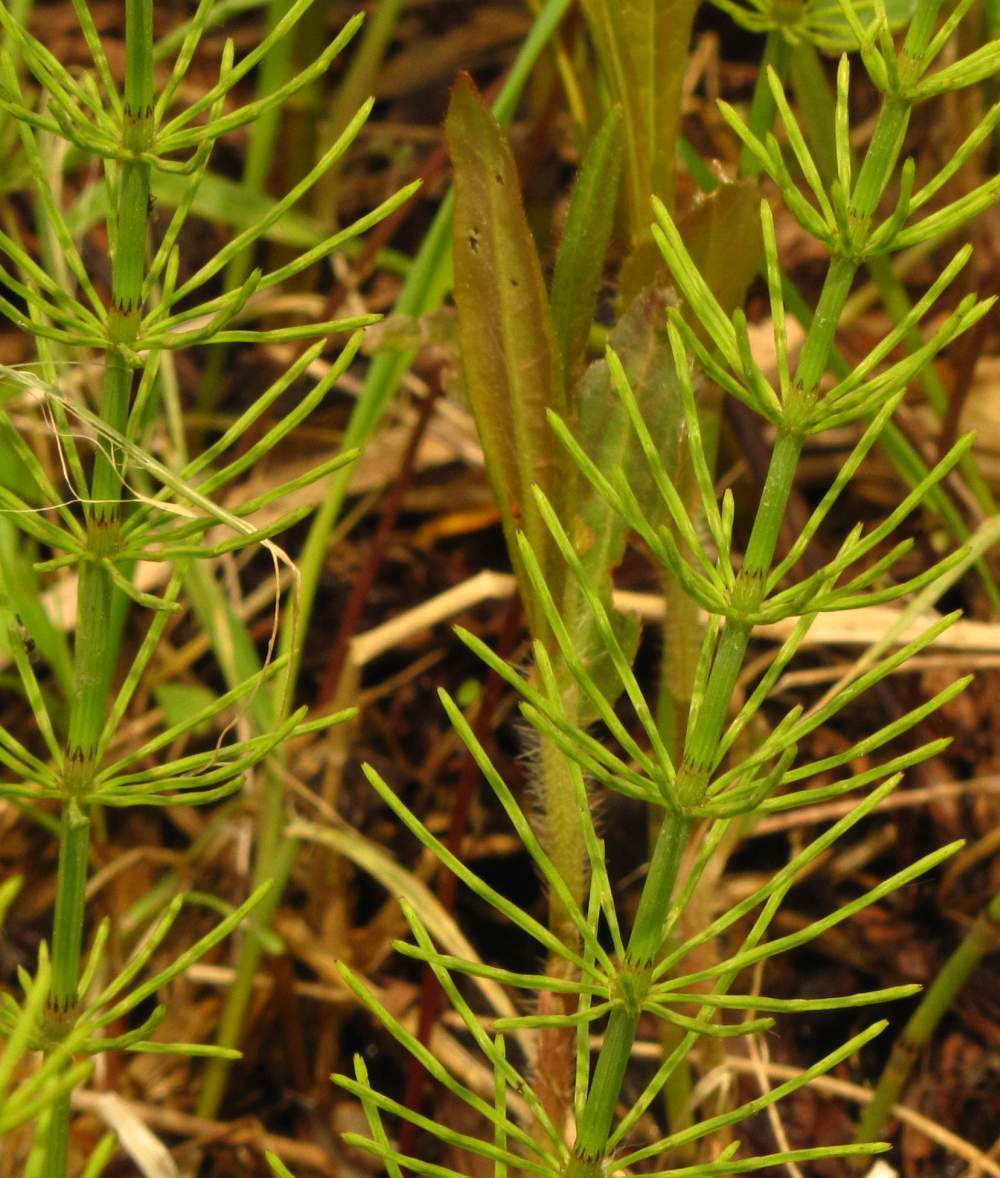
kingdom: Plantae
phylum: Tracheophyta
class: Polypodiopsida
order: Equisetales
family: Equisetaceae
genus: Equisetum
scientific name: Equisetum fluviatile
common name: Water horsetail
